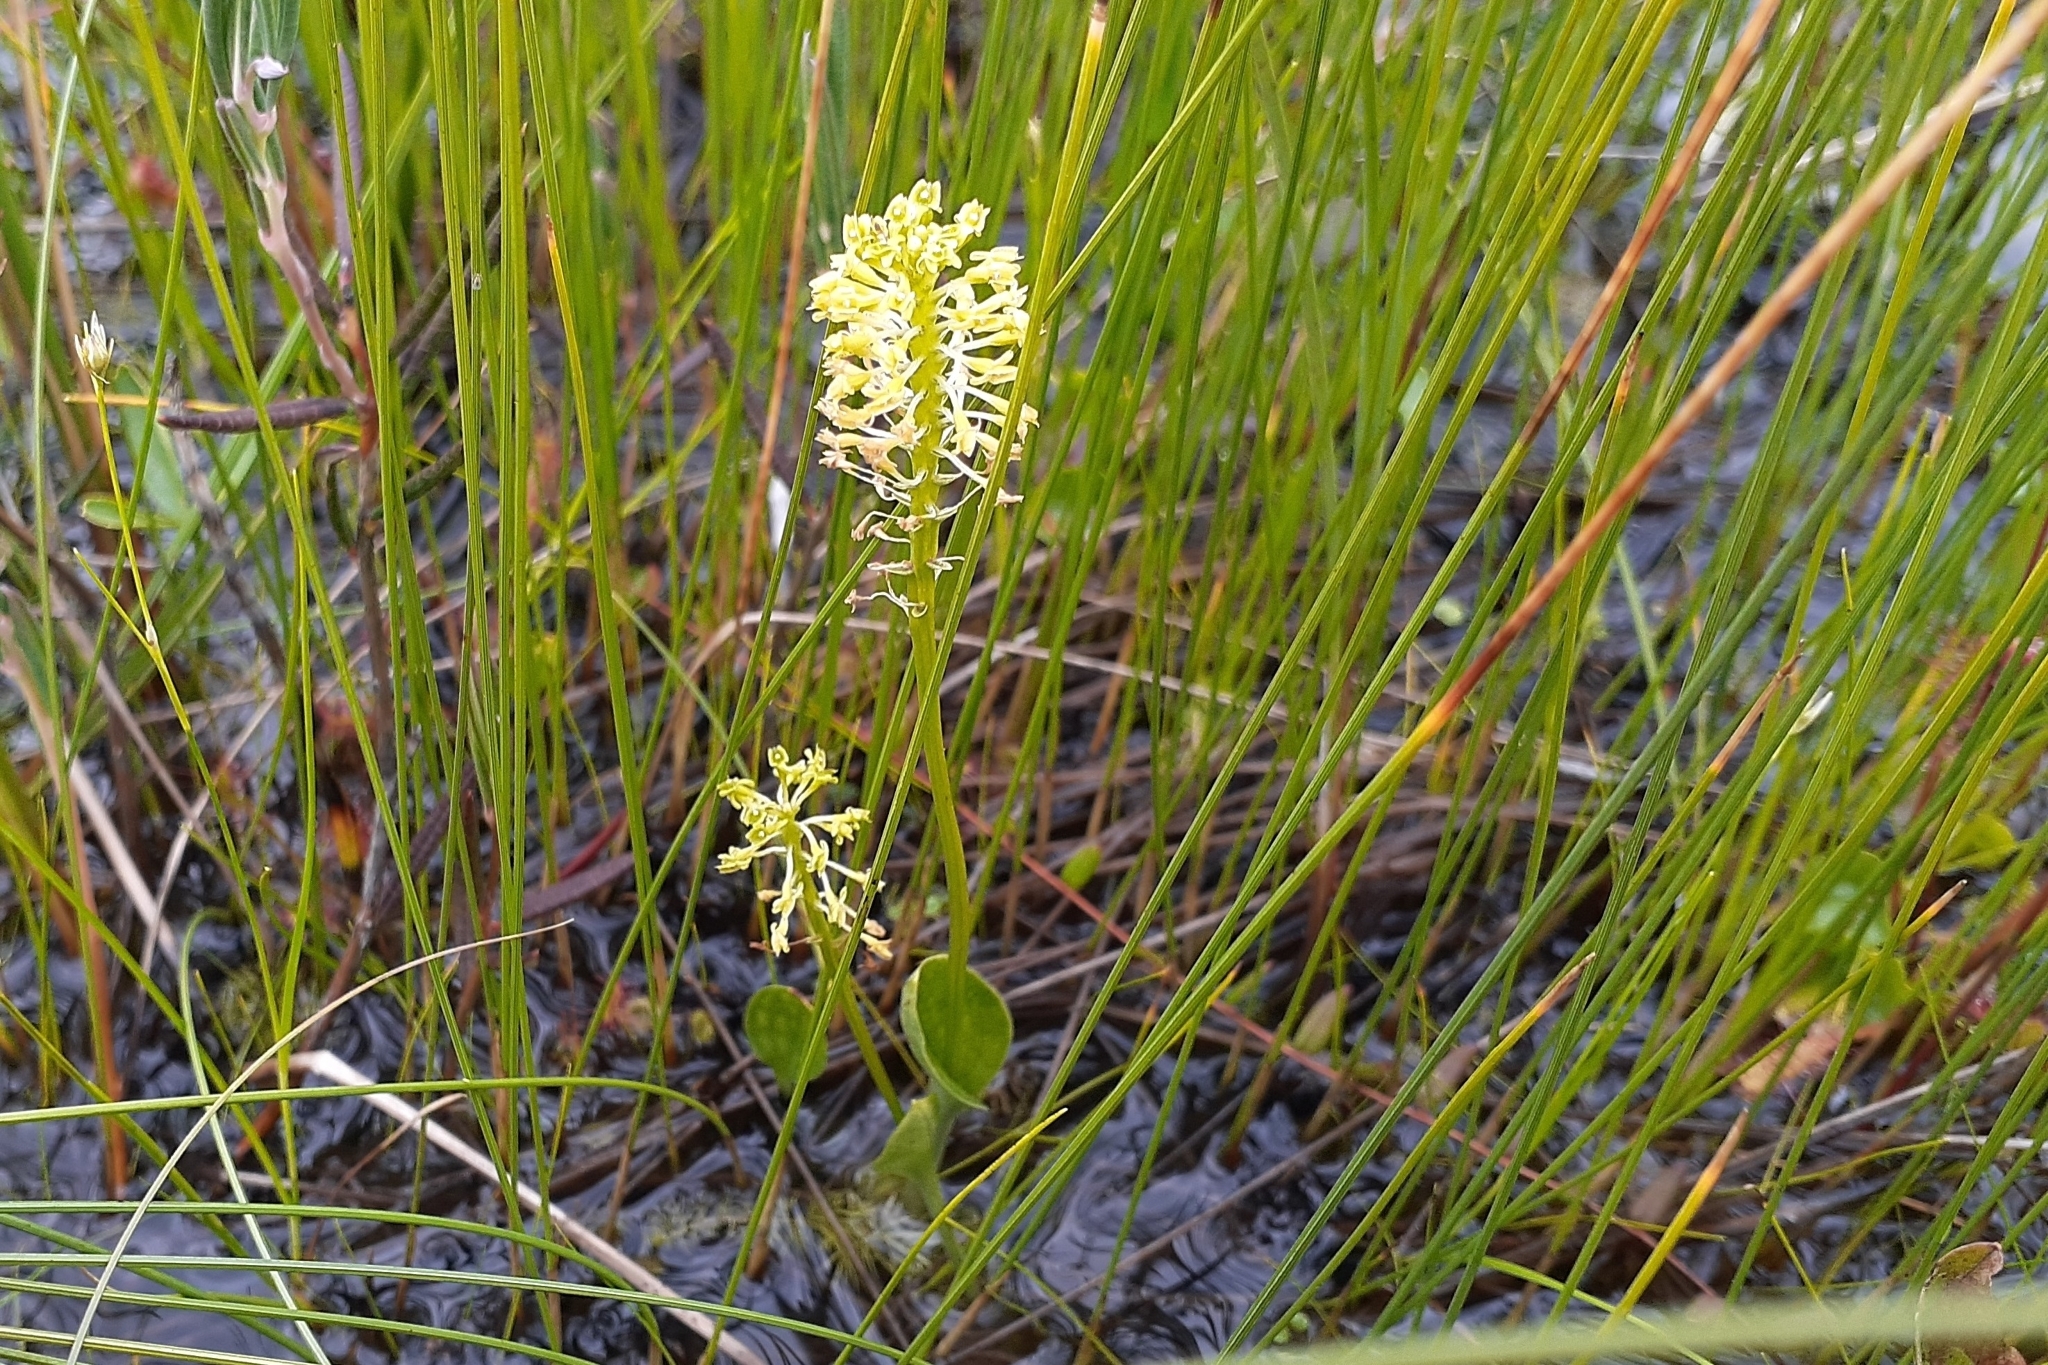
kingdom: Plantae
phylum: Tracheophyta
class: Liliopsida
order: Asparagales
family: Orchidaceae
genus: Malaxis
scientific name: Malaxis unifolia
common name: Green adder's-mouth
